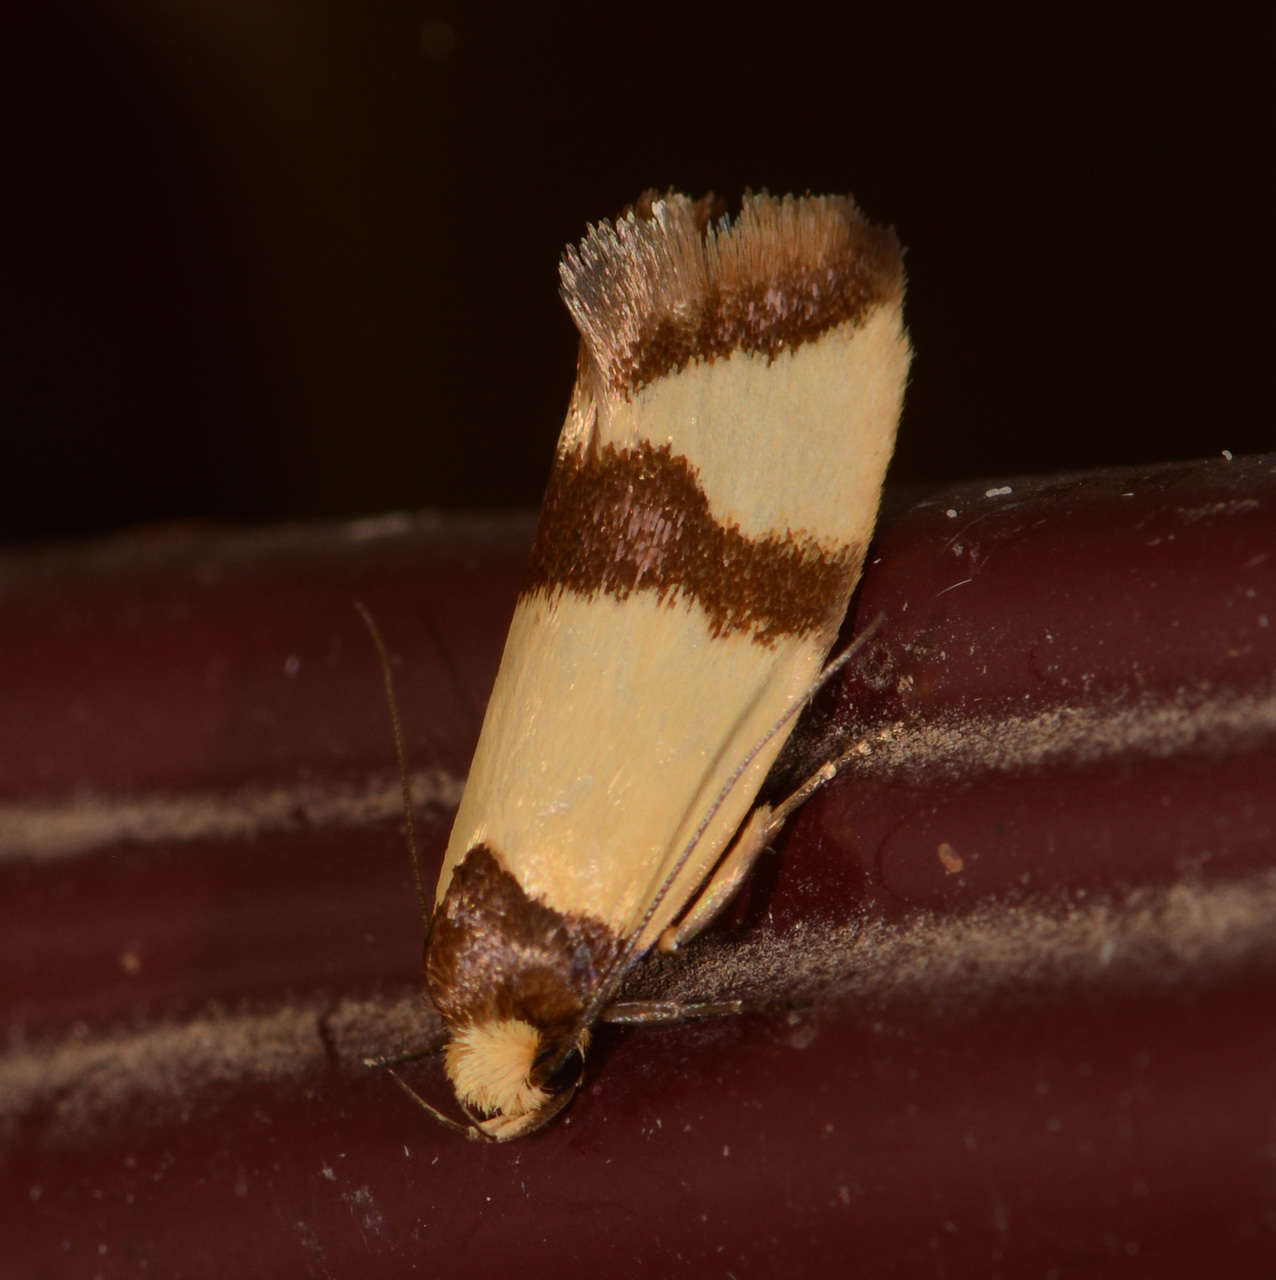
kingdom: Animalia
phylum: Arthropoda
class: Insecta
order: Lepidoptera
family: Oecophoridae
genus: Chrysonoma
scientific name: Chrysonoma fascialis
